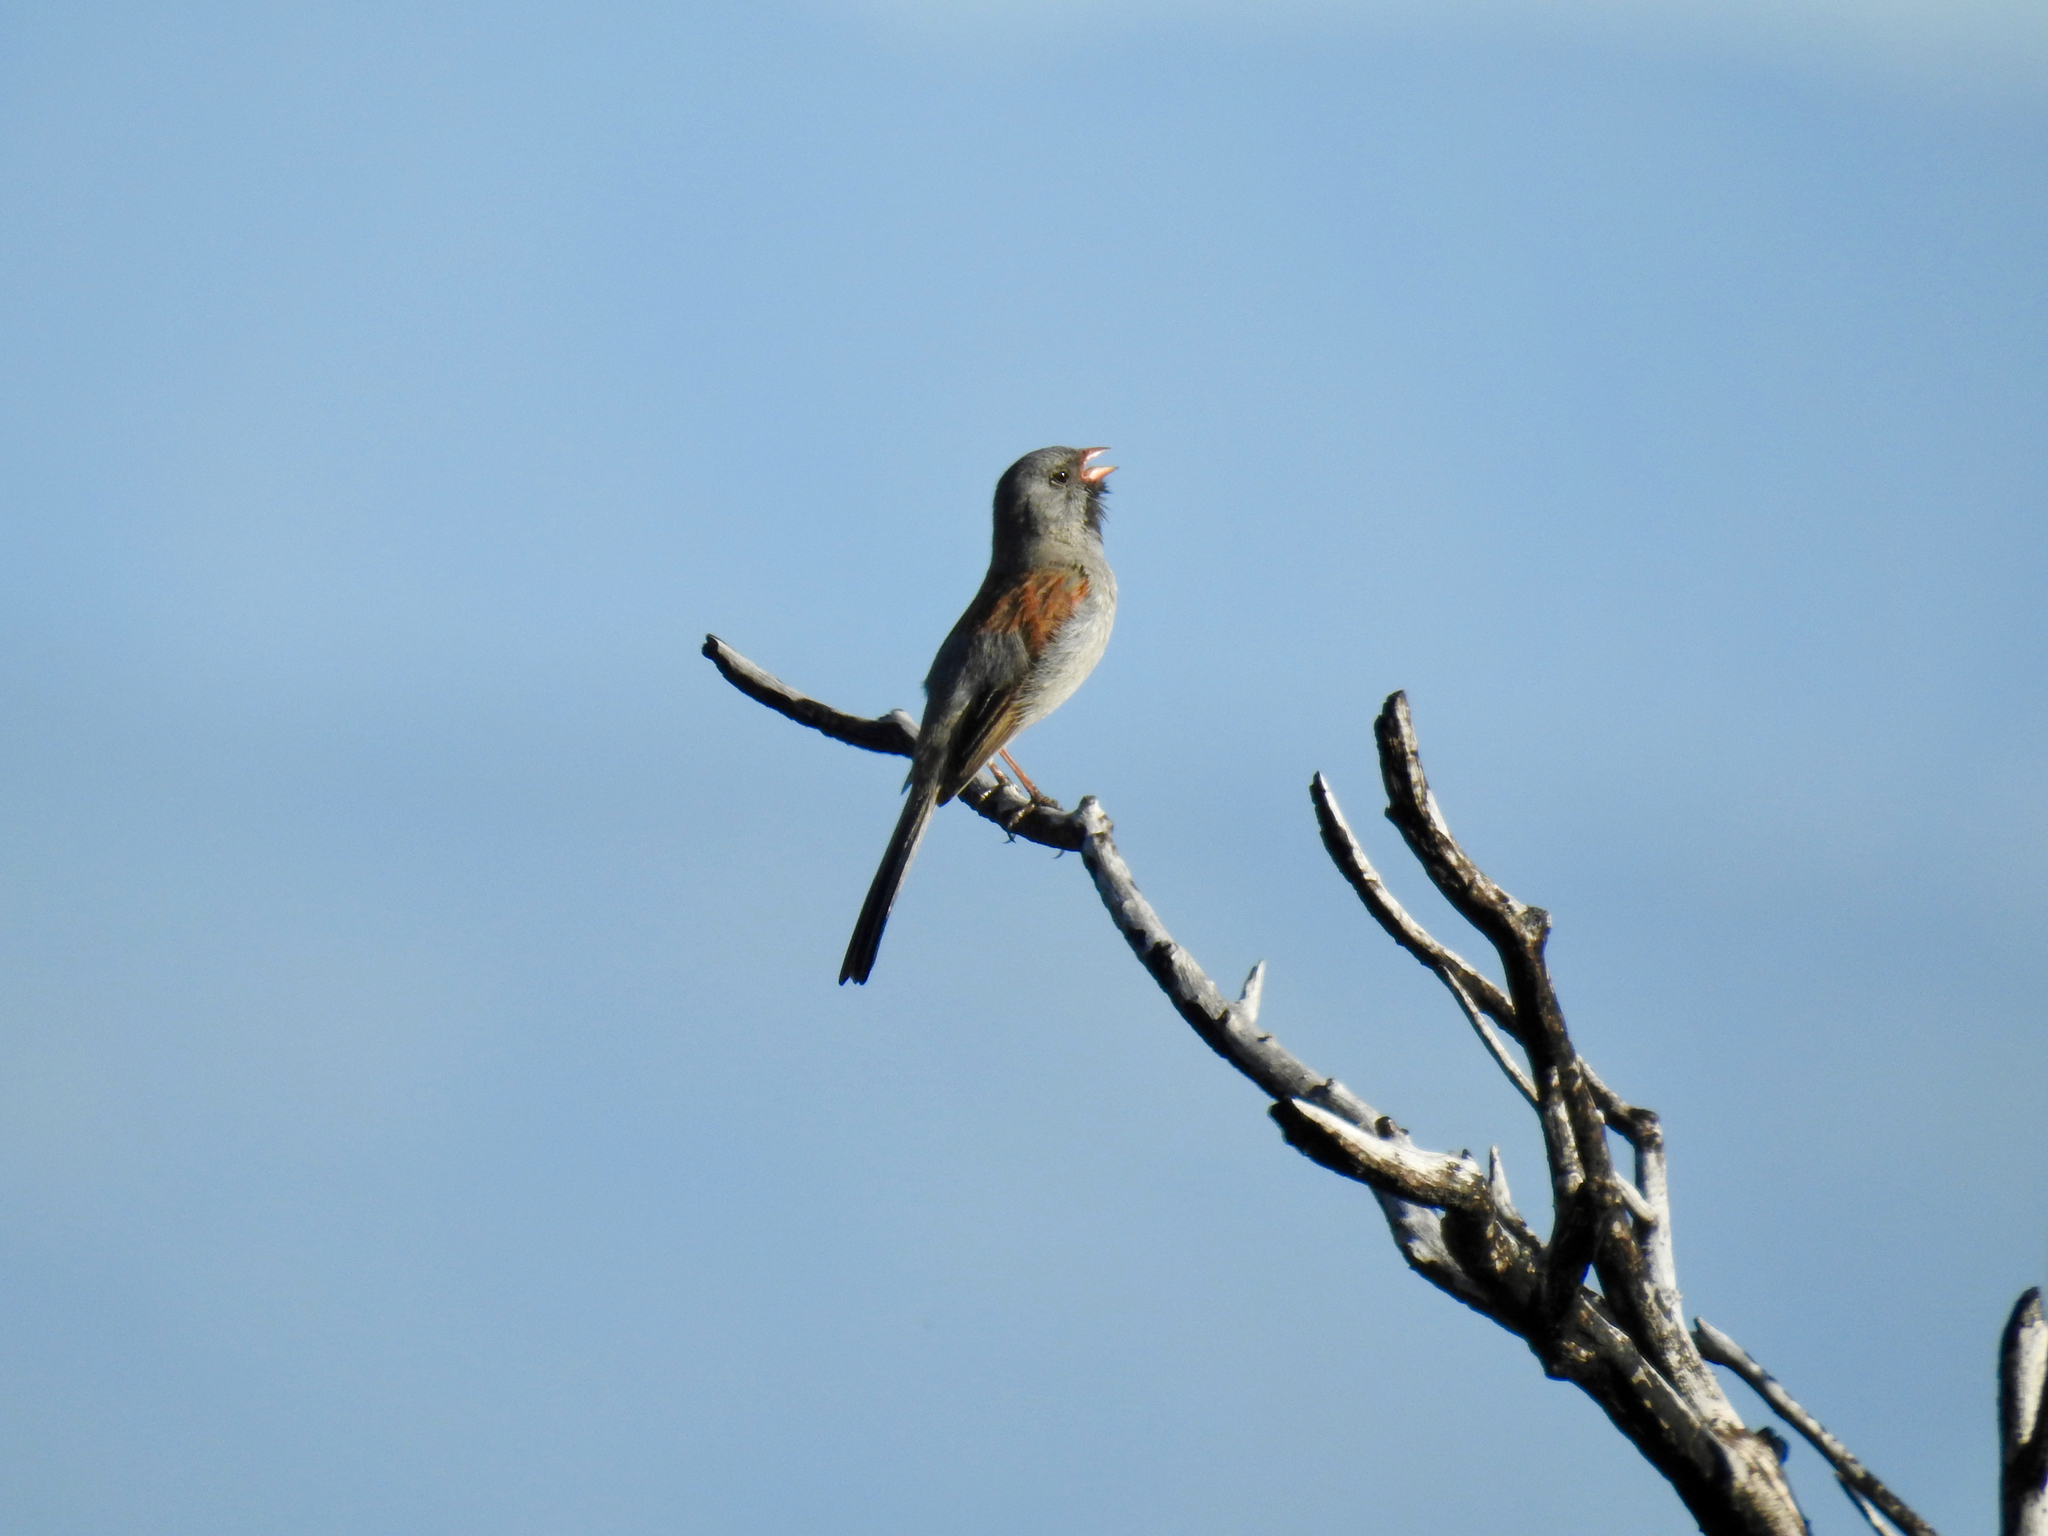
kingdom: Animalia
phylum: Chordata
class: Aves
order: Passeriformes
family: Passerellidae
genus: Spizella
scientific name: Spizella atrogularis
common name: Black-chinned sparrow
